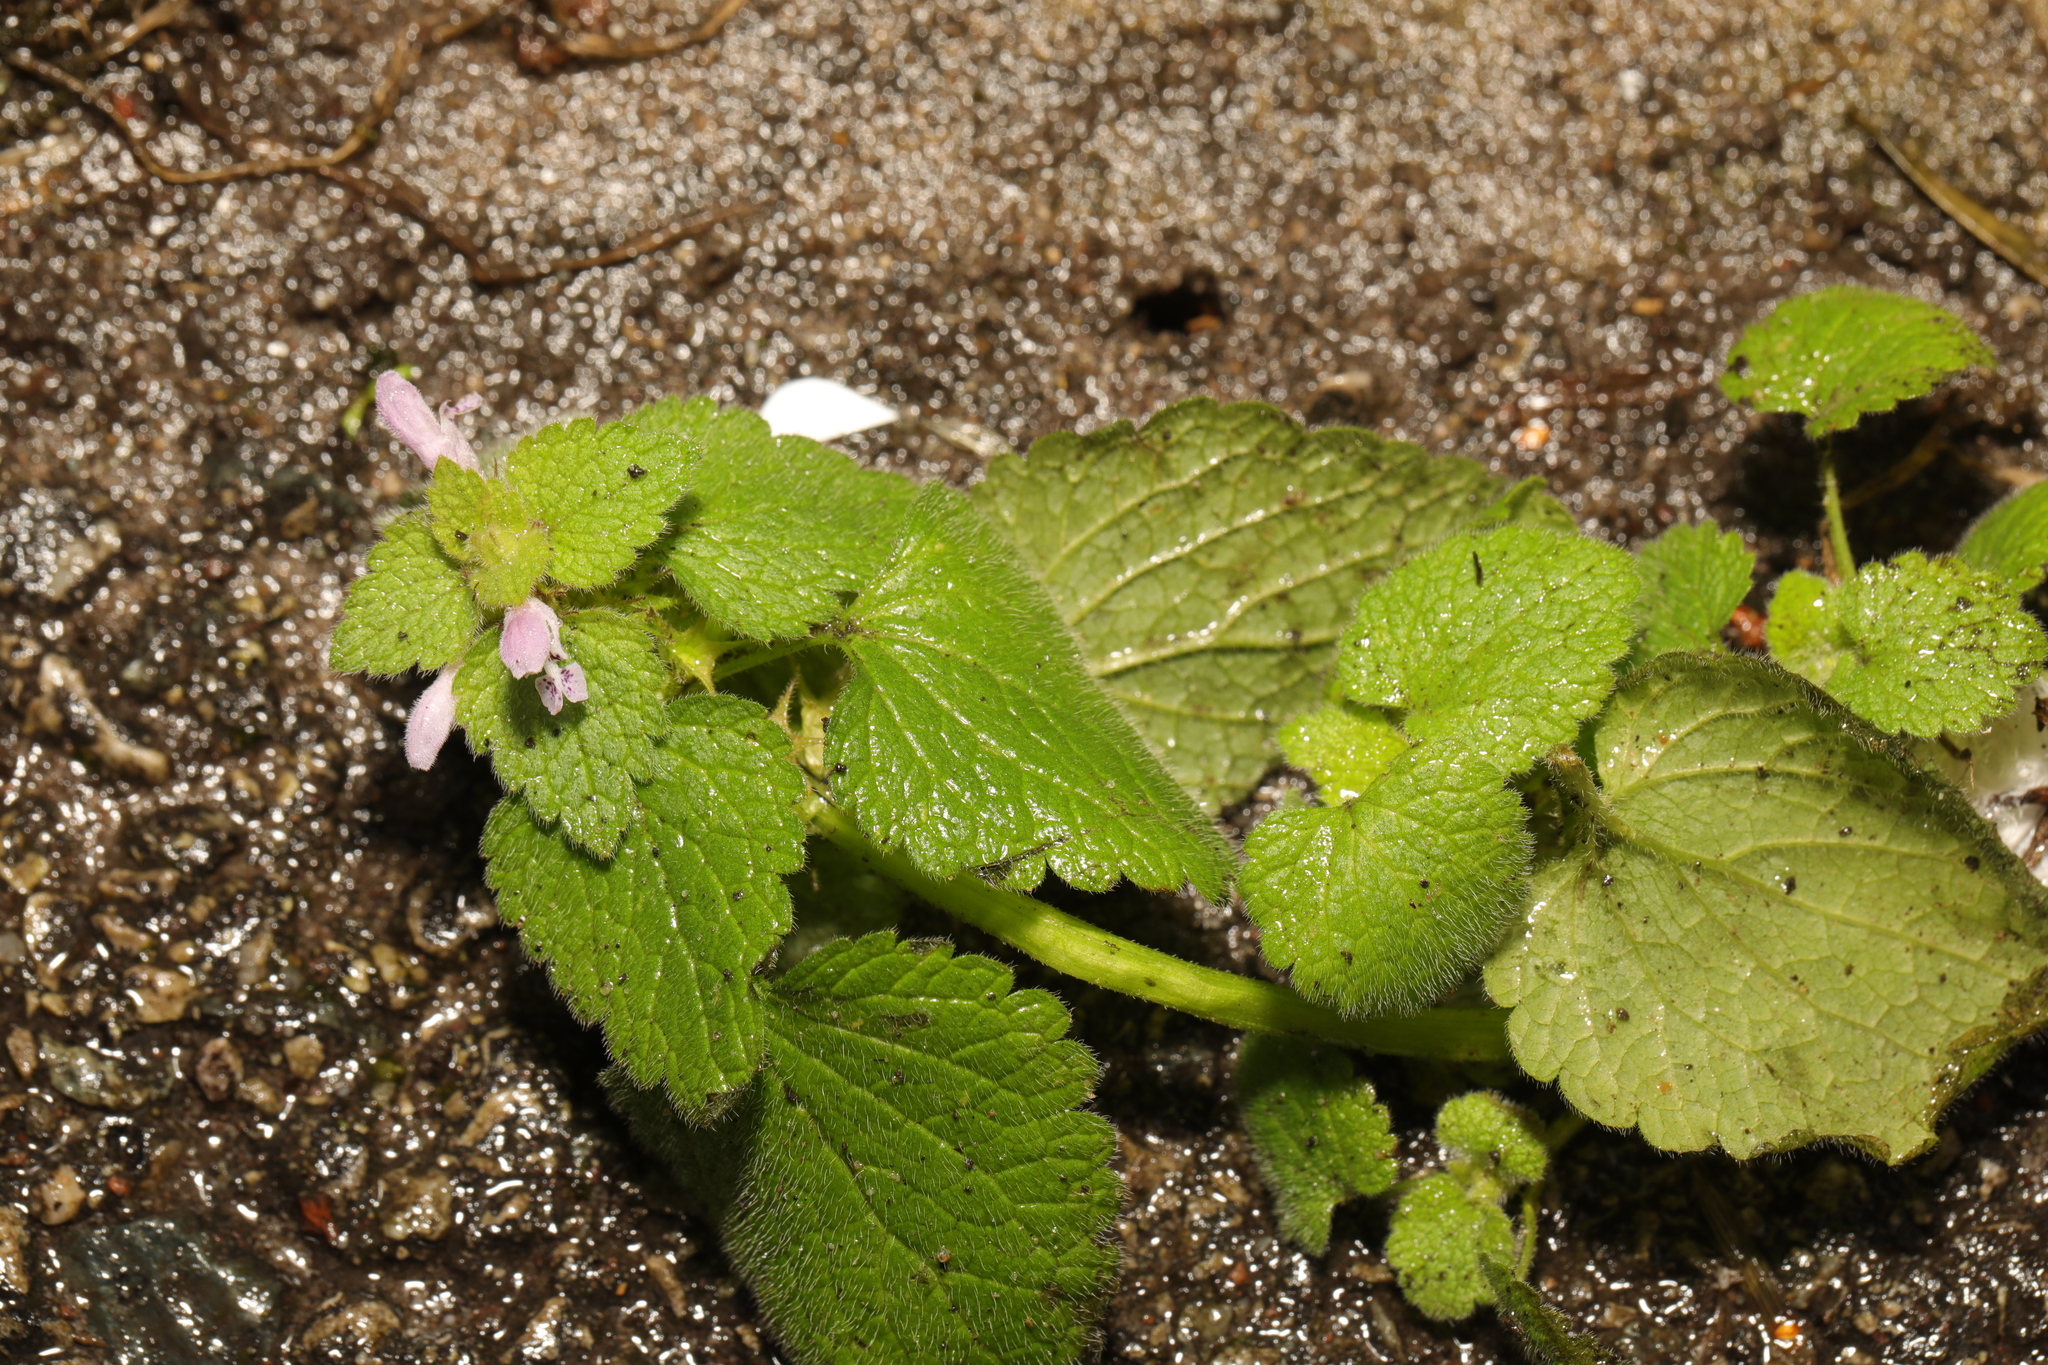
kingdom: Plantae
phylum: Tracheophyta
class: Magnoliopsida
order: Lamiales
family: Lamiaceae
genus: Lamium
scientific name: Lamium purpureum
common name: Red dead-nettle
